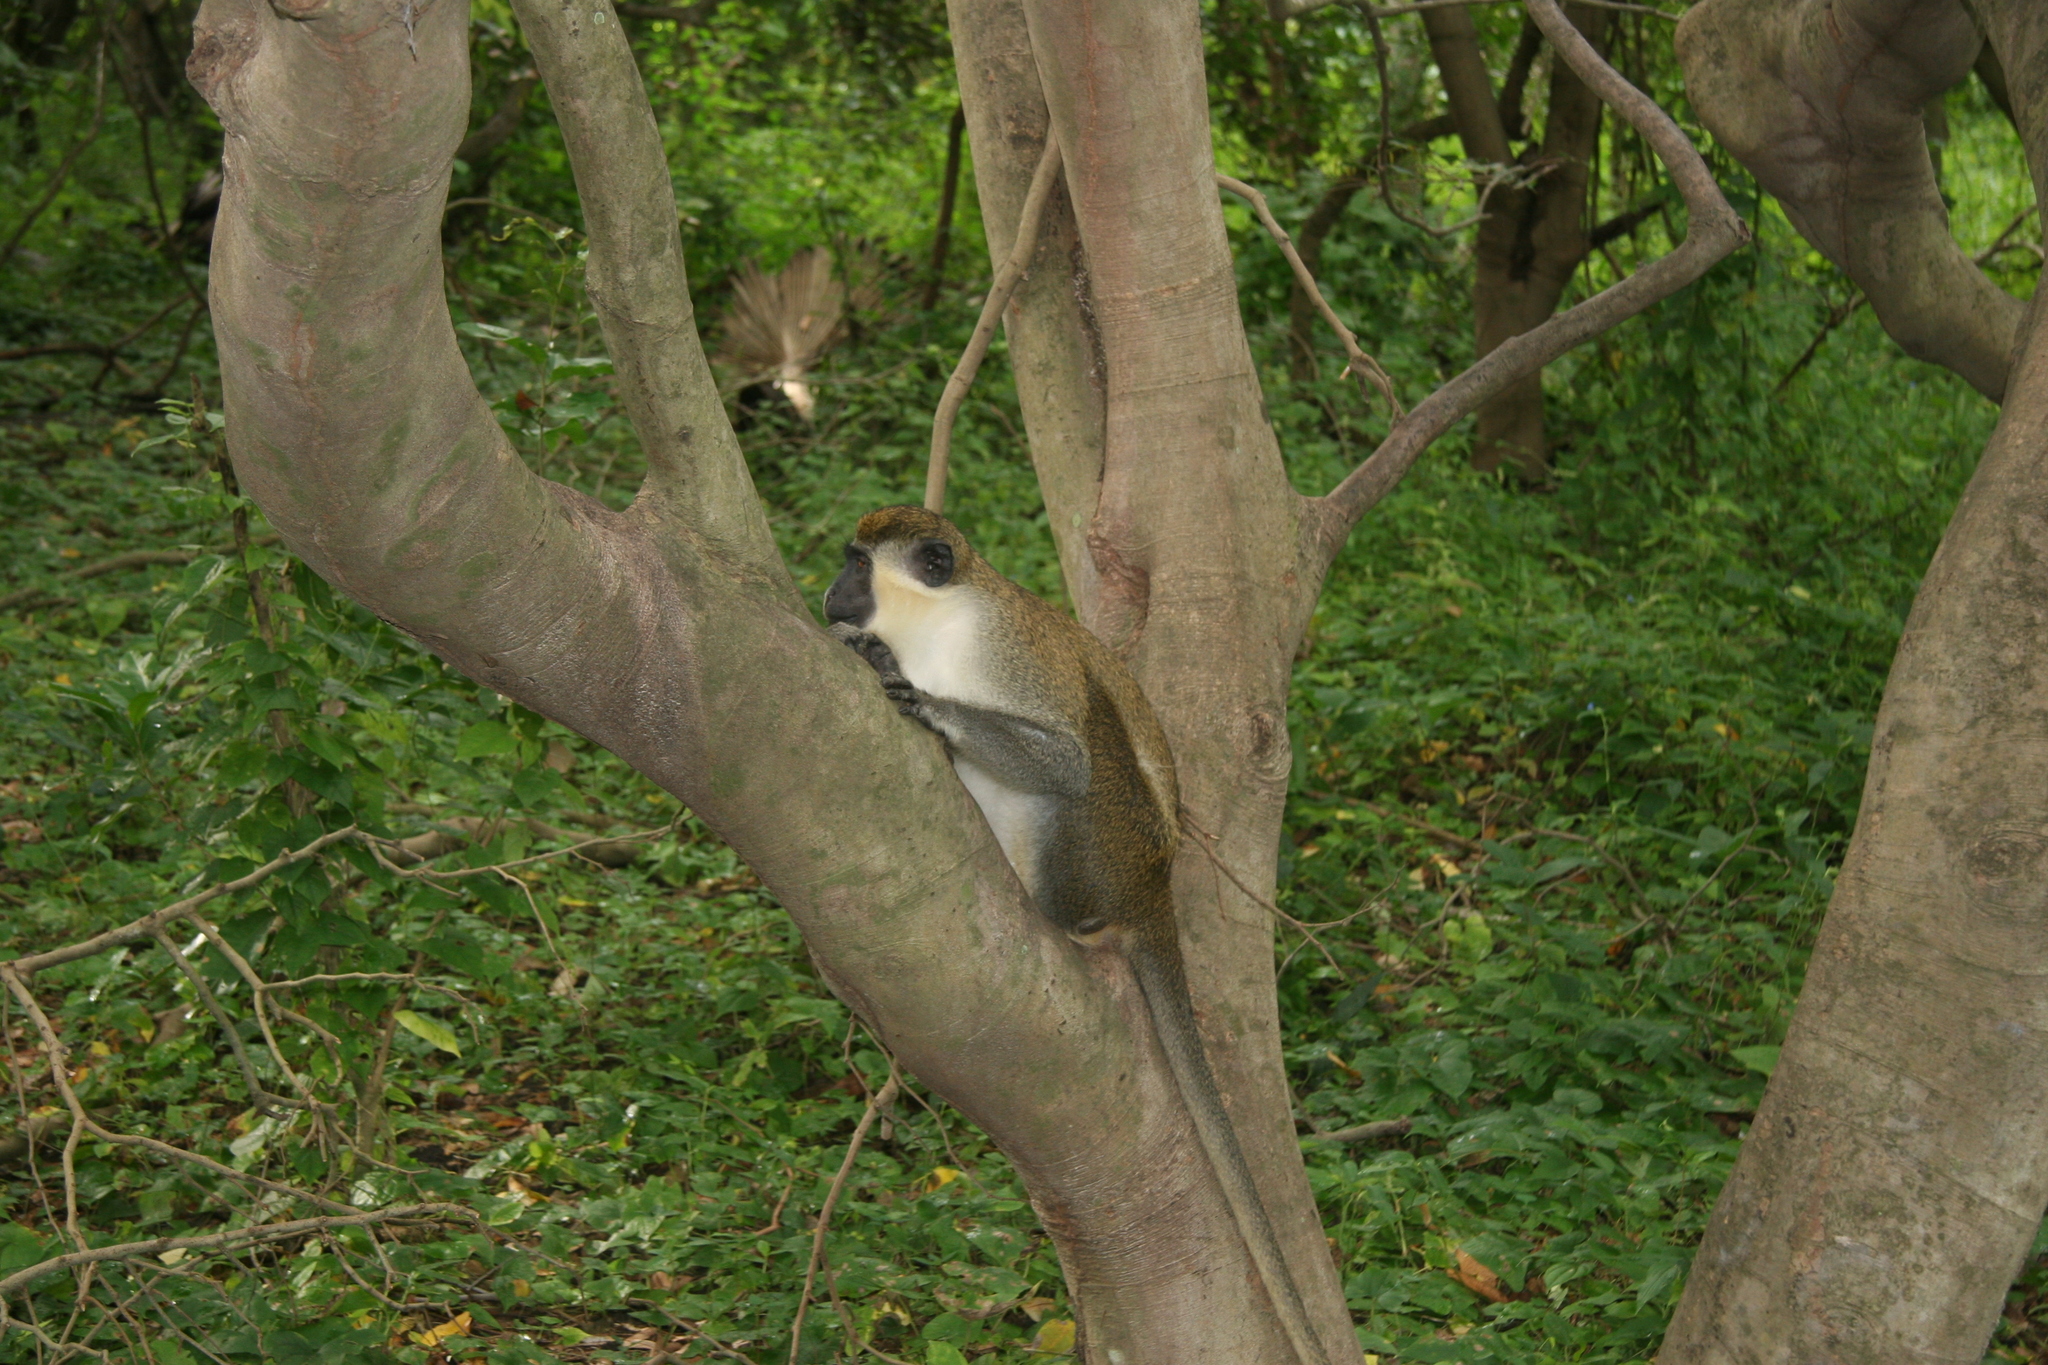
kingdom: Animalia
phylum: Chordata
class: Mammalia
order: Primates
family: Cercopithecidae
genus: Chlorocebus
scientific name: Chlorocebus sabaeus
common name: Green monkey
